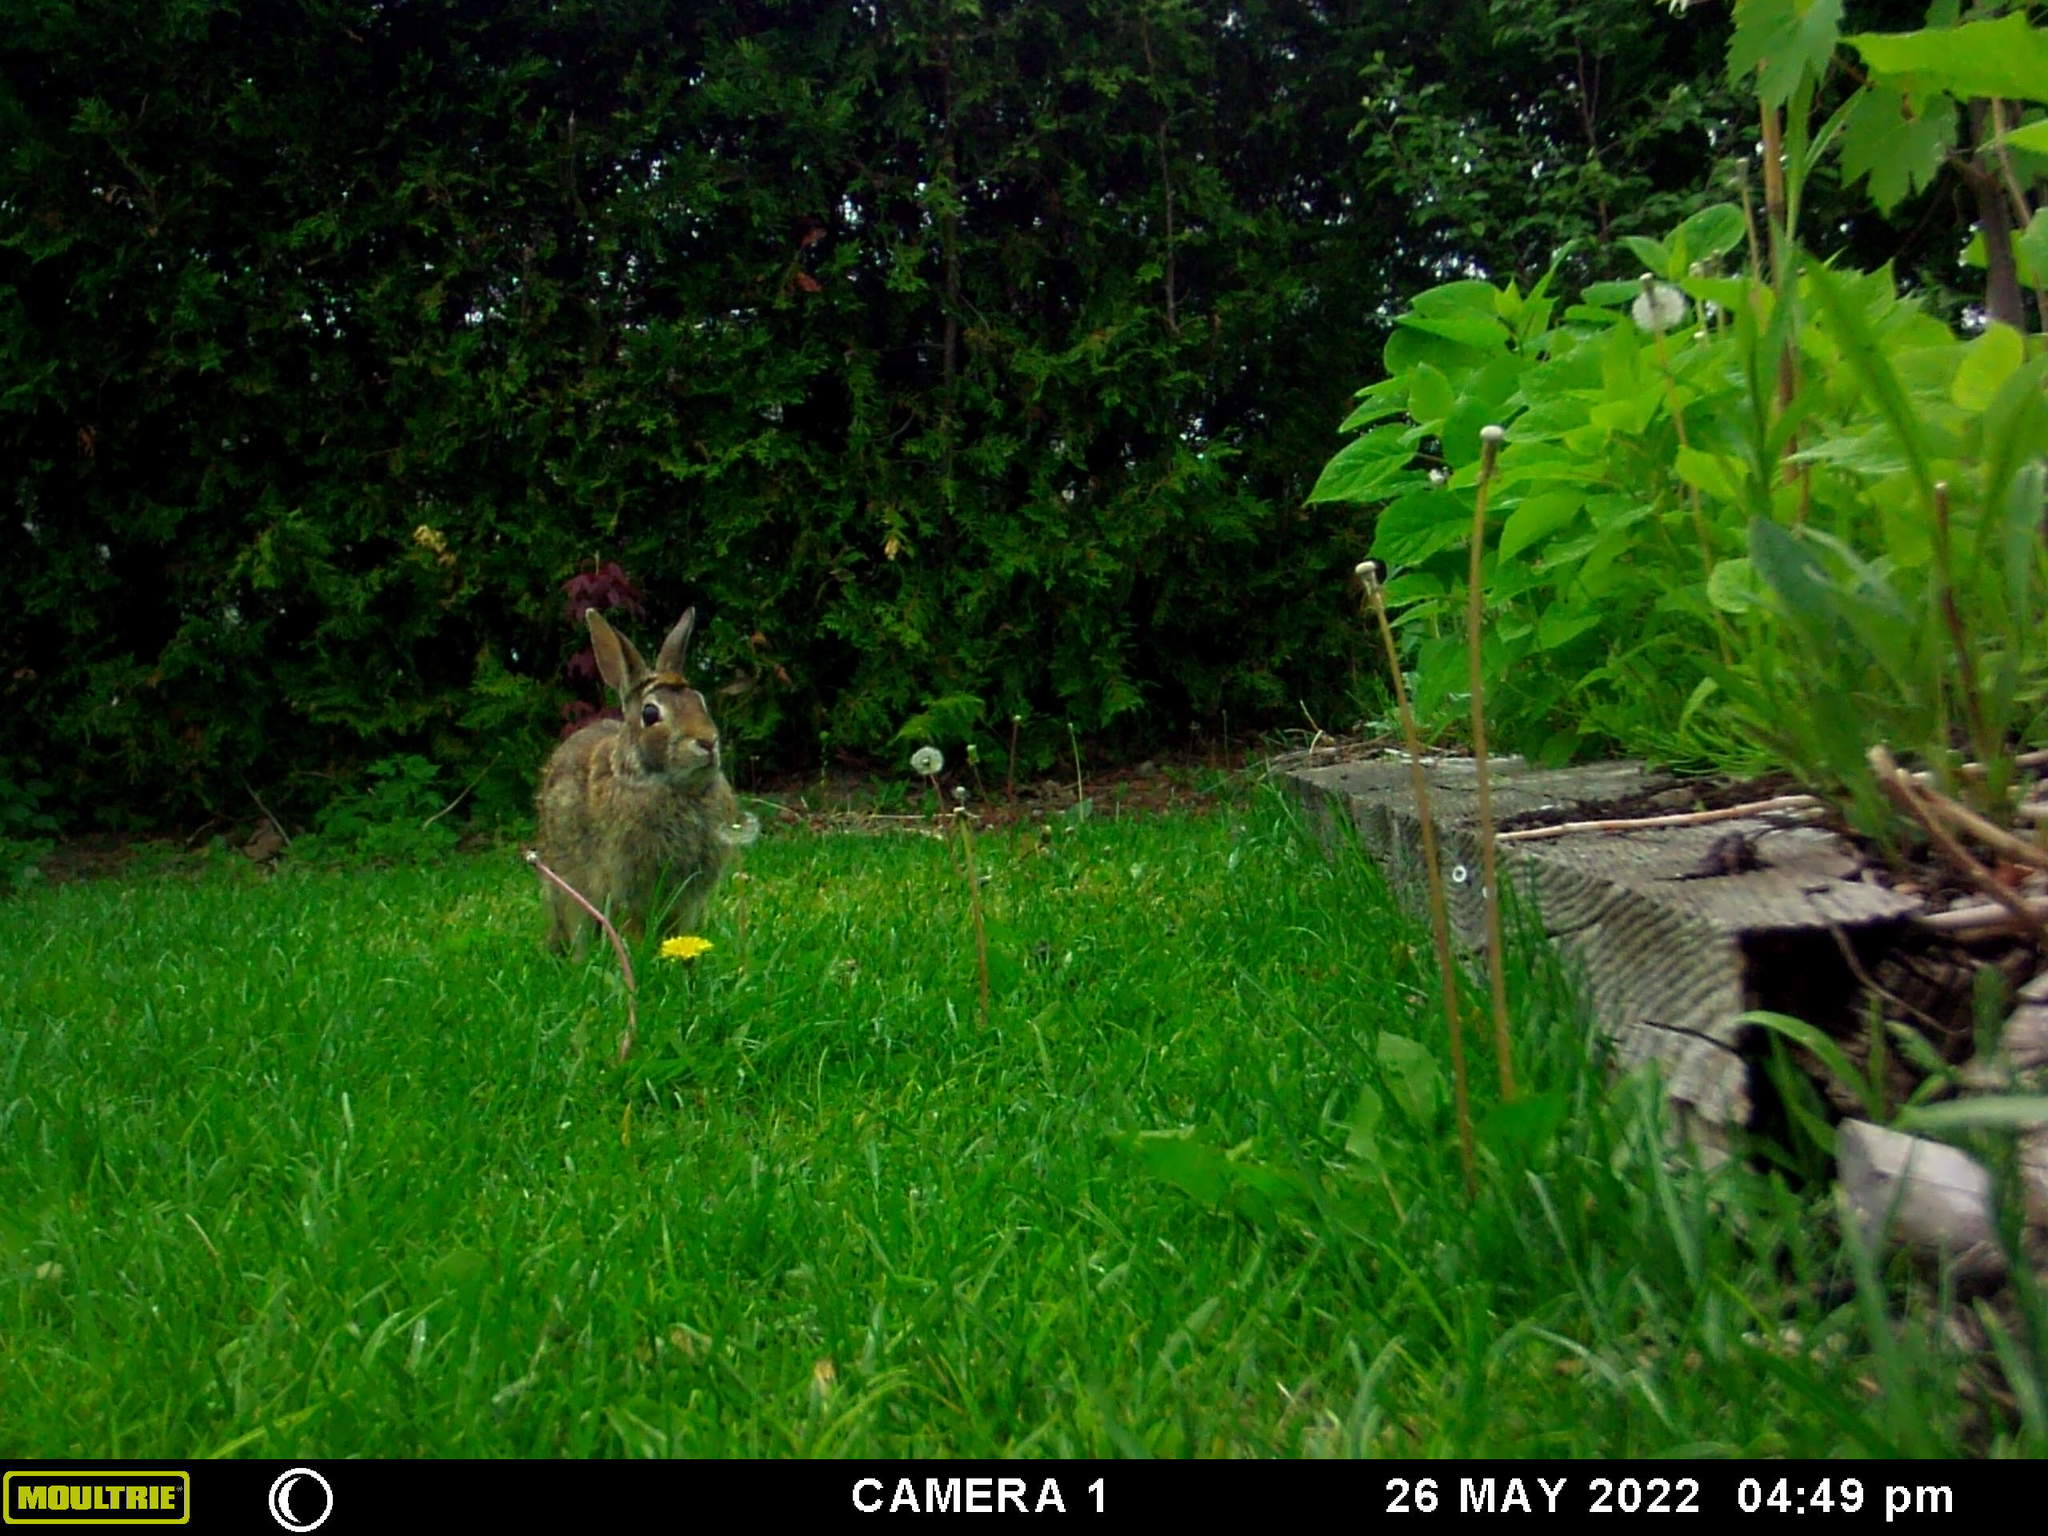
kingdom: Animalia
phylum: Chordata
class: Mammalia
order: Lagomorpha
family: Leporidae
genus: Sylvilagus
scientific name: Sylvilagus floridanus
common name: Eastern cottontail
